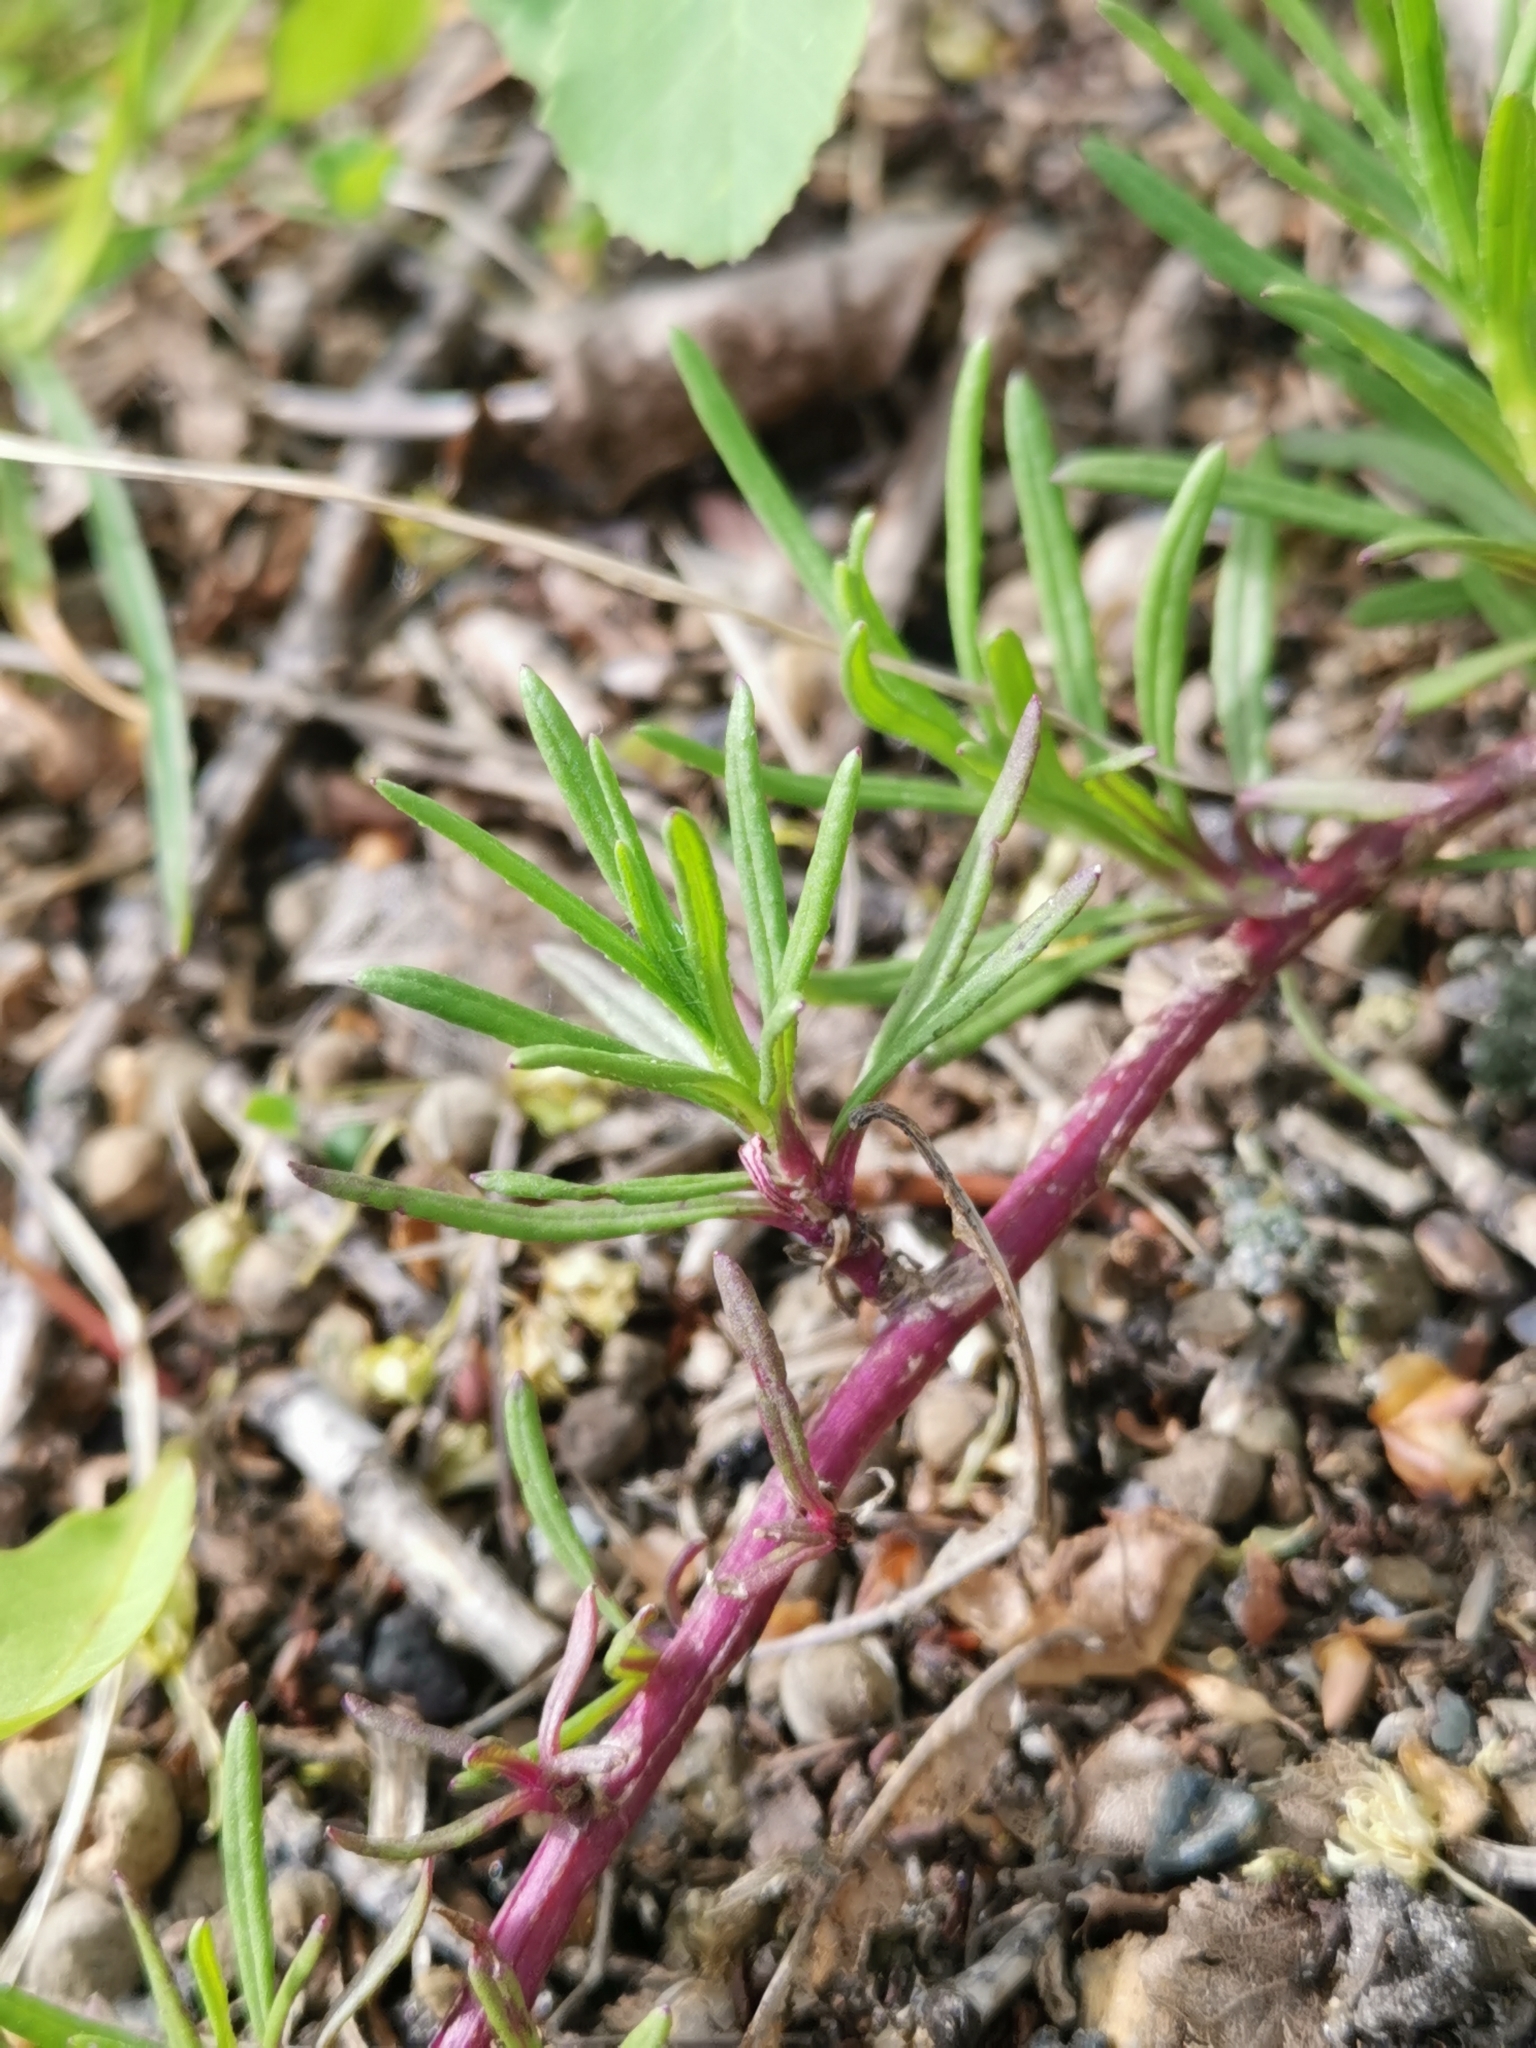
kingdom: Plantae
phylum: Tracheophyta
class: Magnoliopsida
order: Asterales
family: Asteraceae
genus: Senecio
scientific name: Senecio inaequidens
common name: Narrow-leaved ragwort
